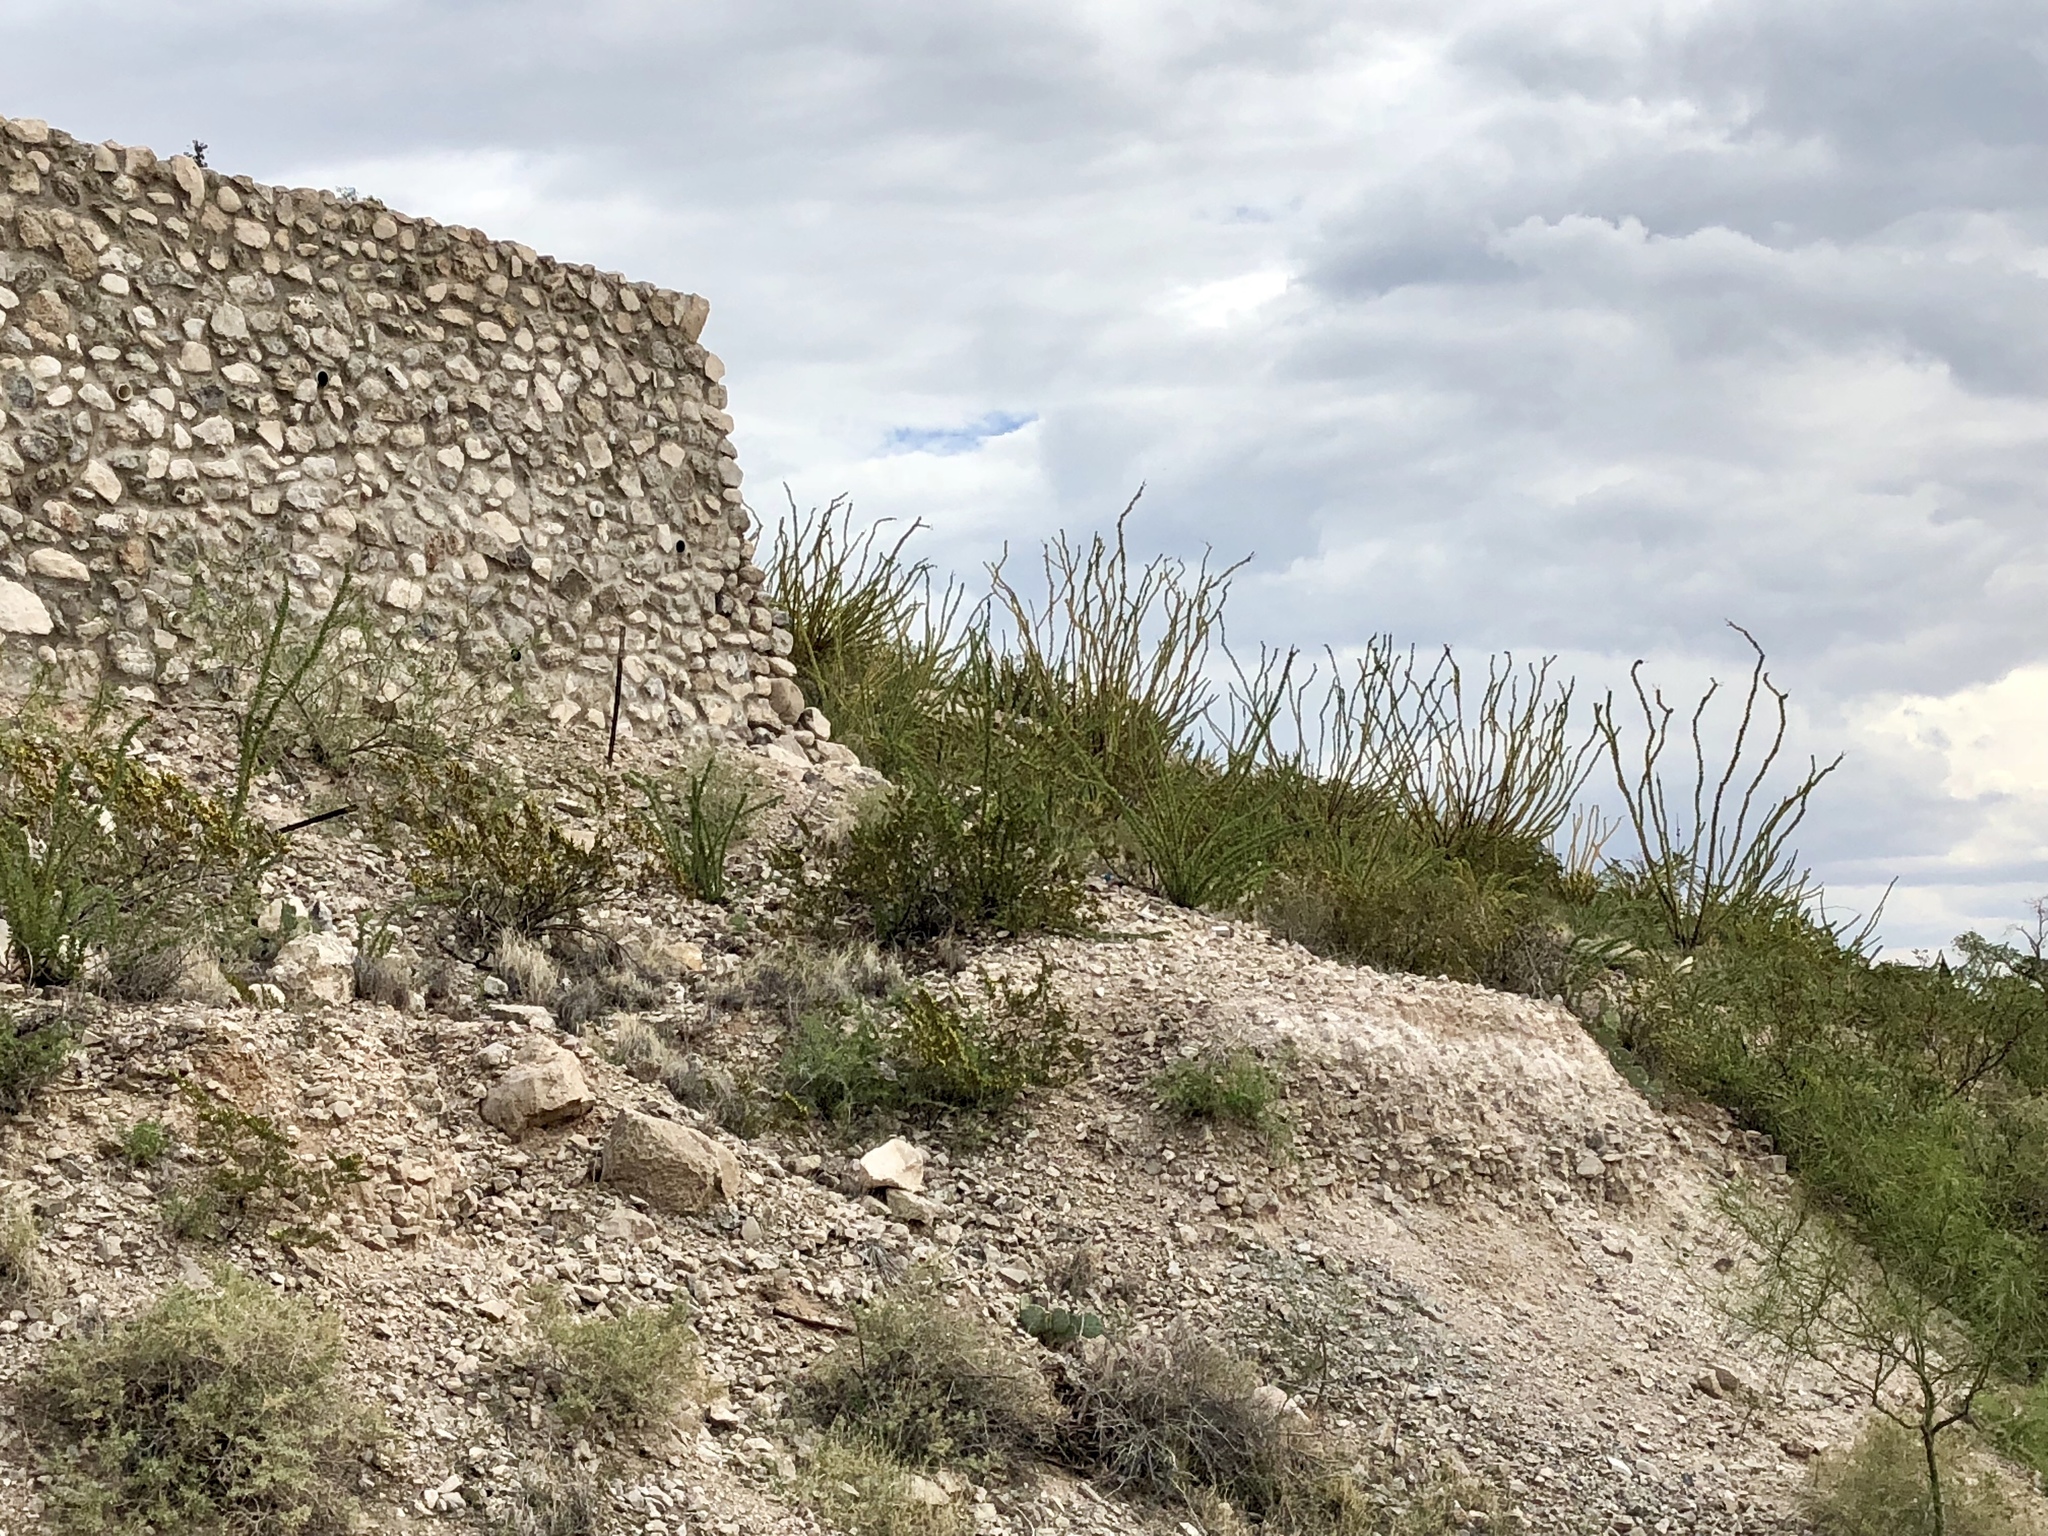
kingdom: Plantae
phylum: Tracheophyta
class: Magnoliopsida
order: Ericales
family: Fouquieriaceae
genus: Fouquieria
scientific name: Fouquieria splendens
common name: Vine-cactus
